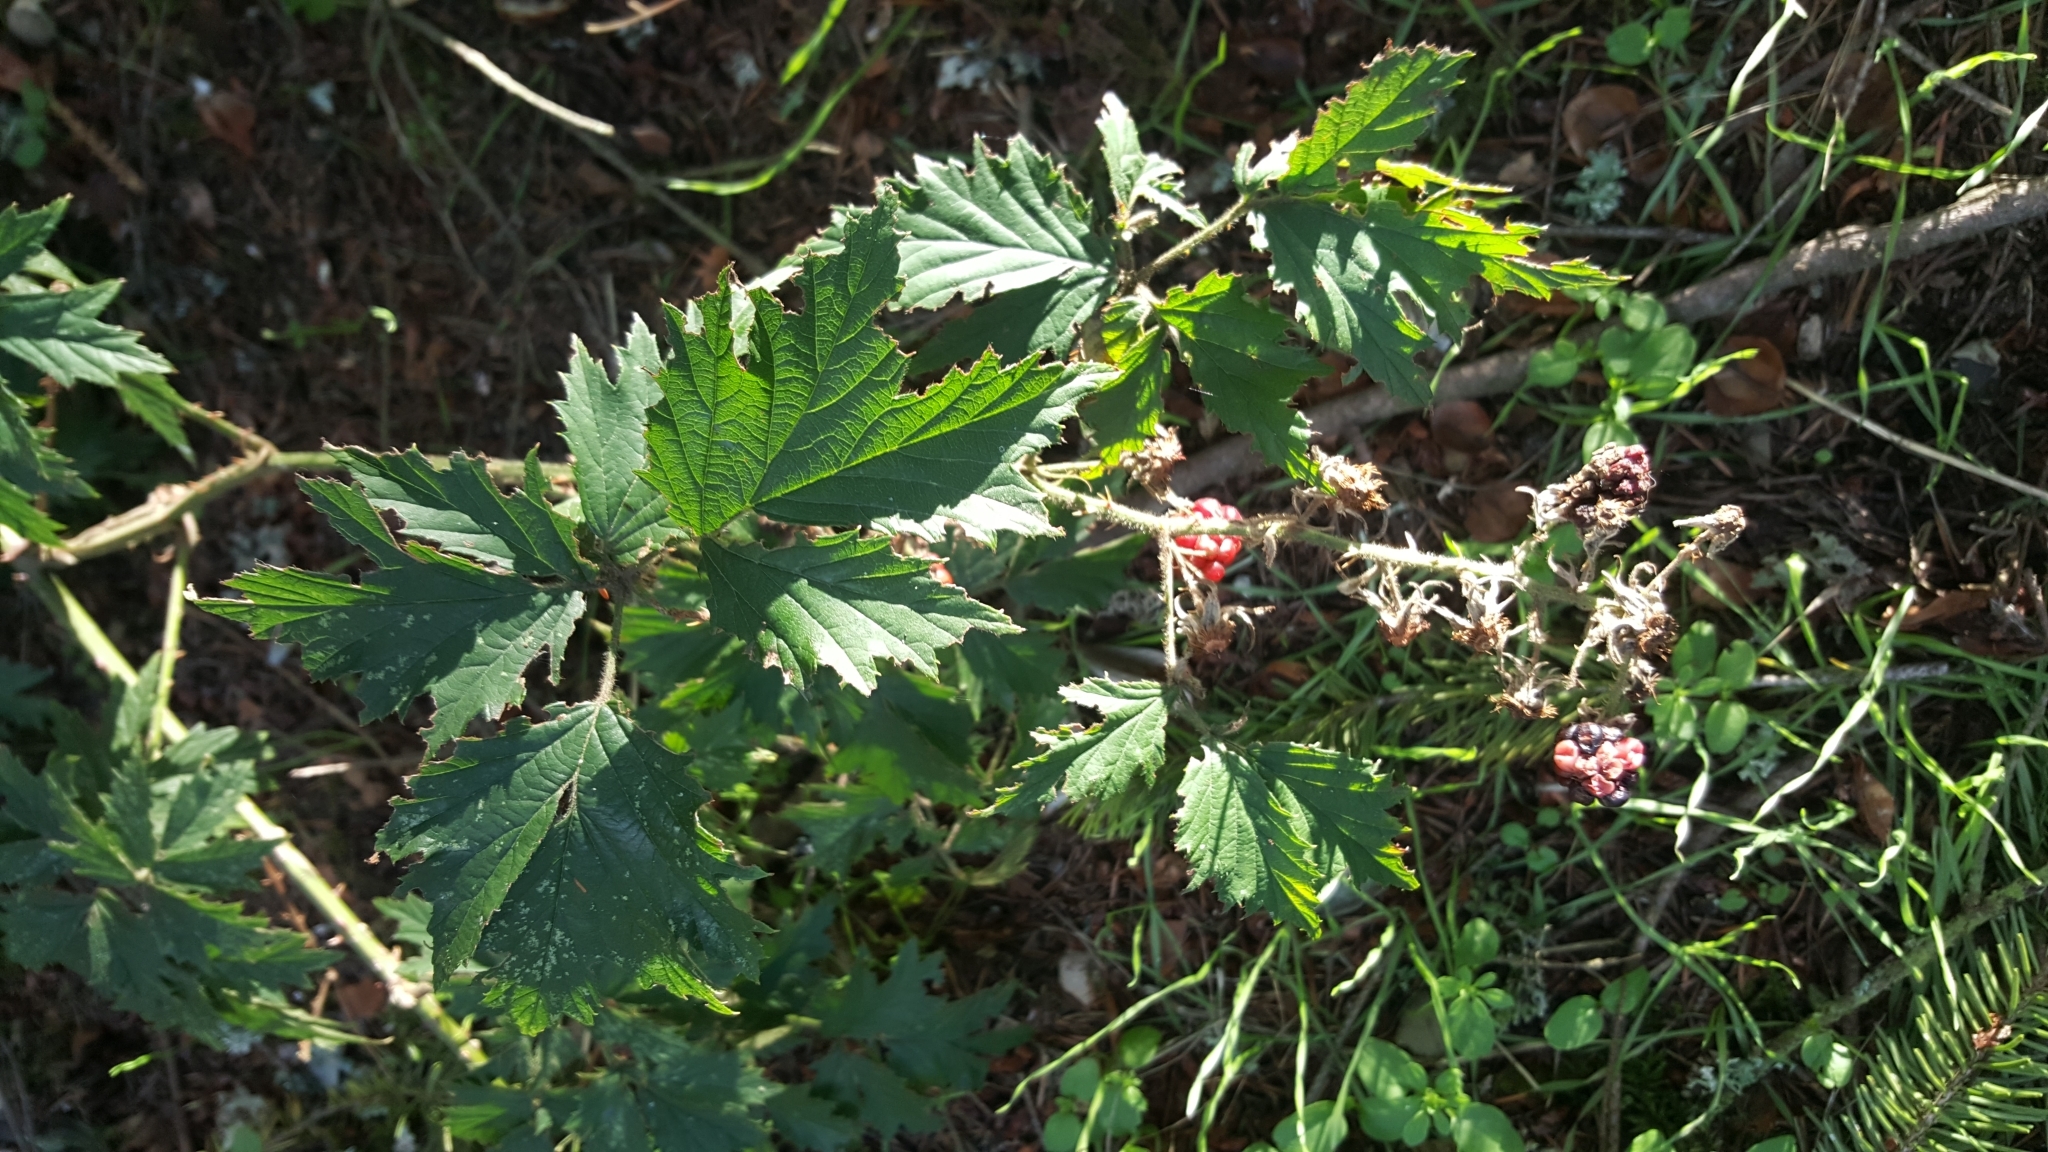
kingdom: Plantae
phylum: Tracheophyta
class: Magnoliopsida
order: Rosales
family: Rosaceae
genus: Rubus
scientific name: Rubus laciniatus
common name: Evergreen blackberry
